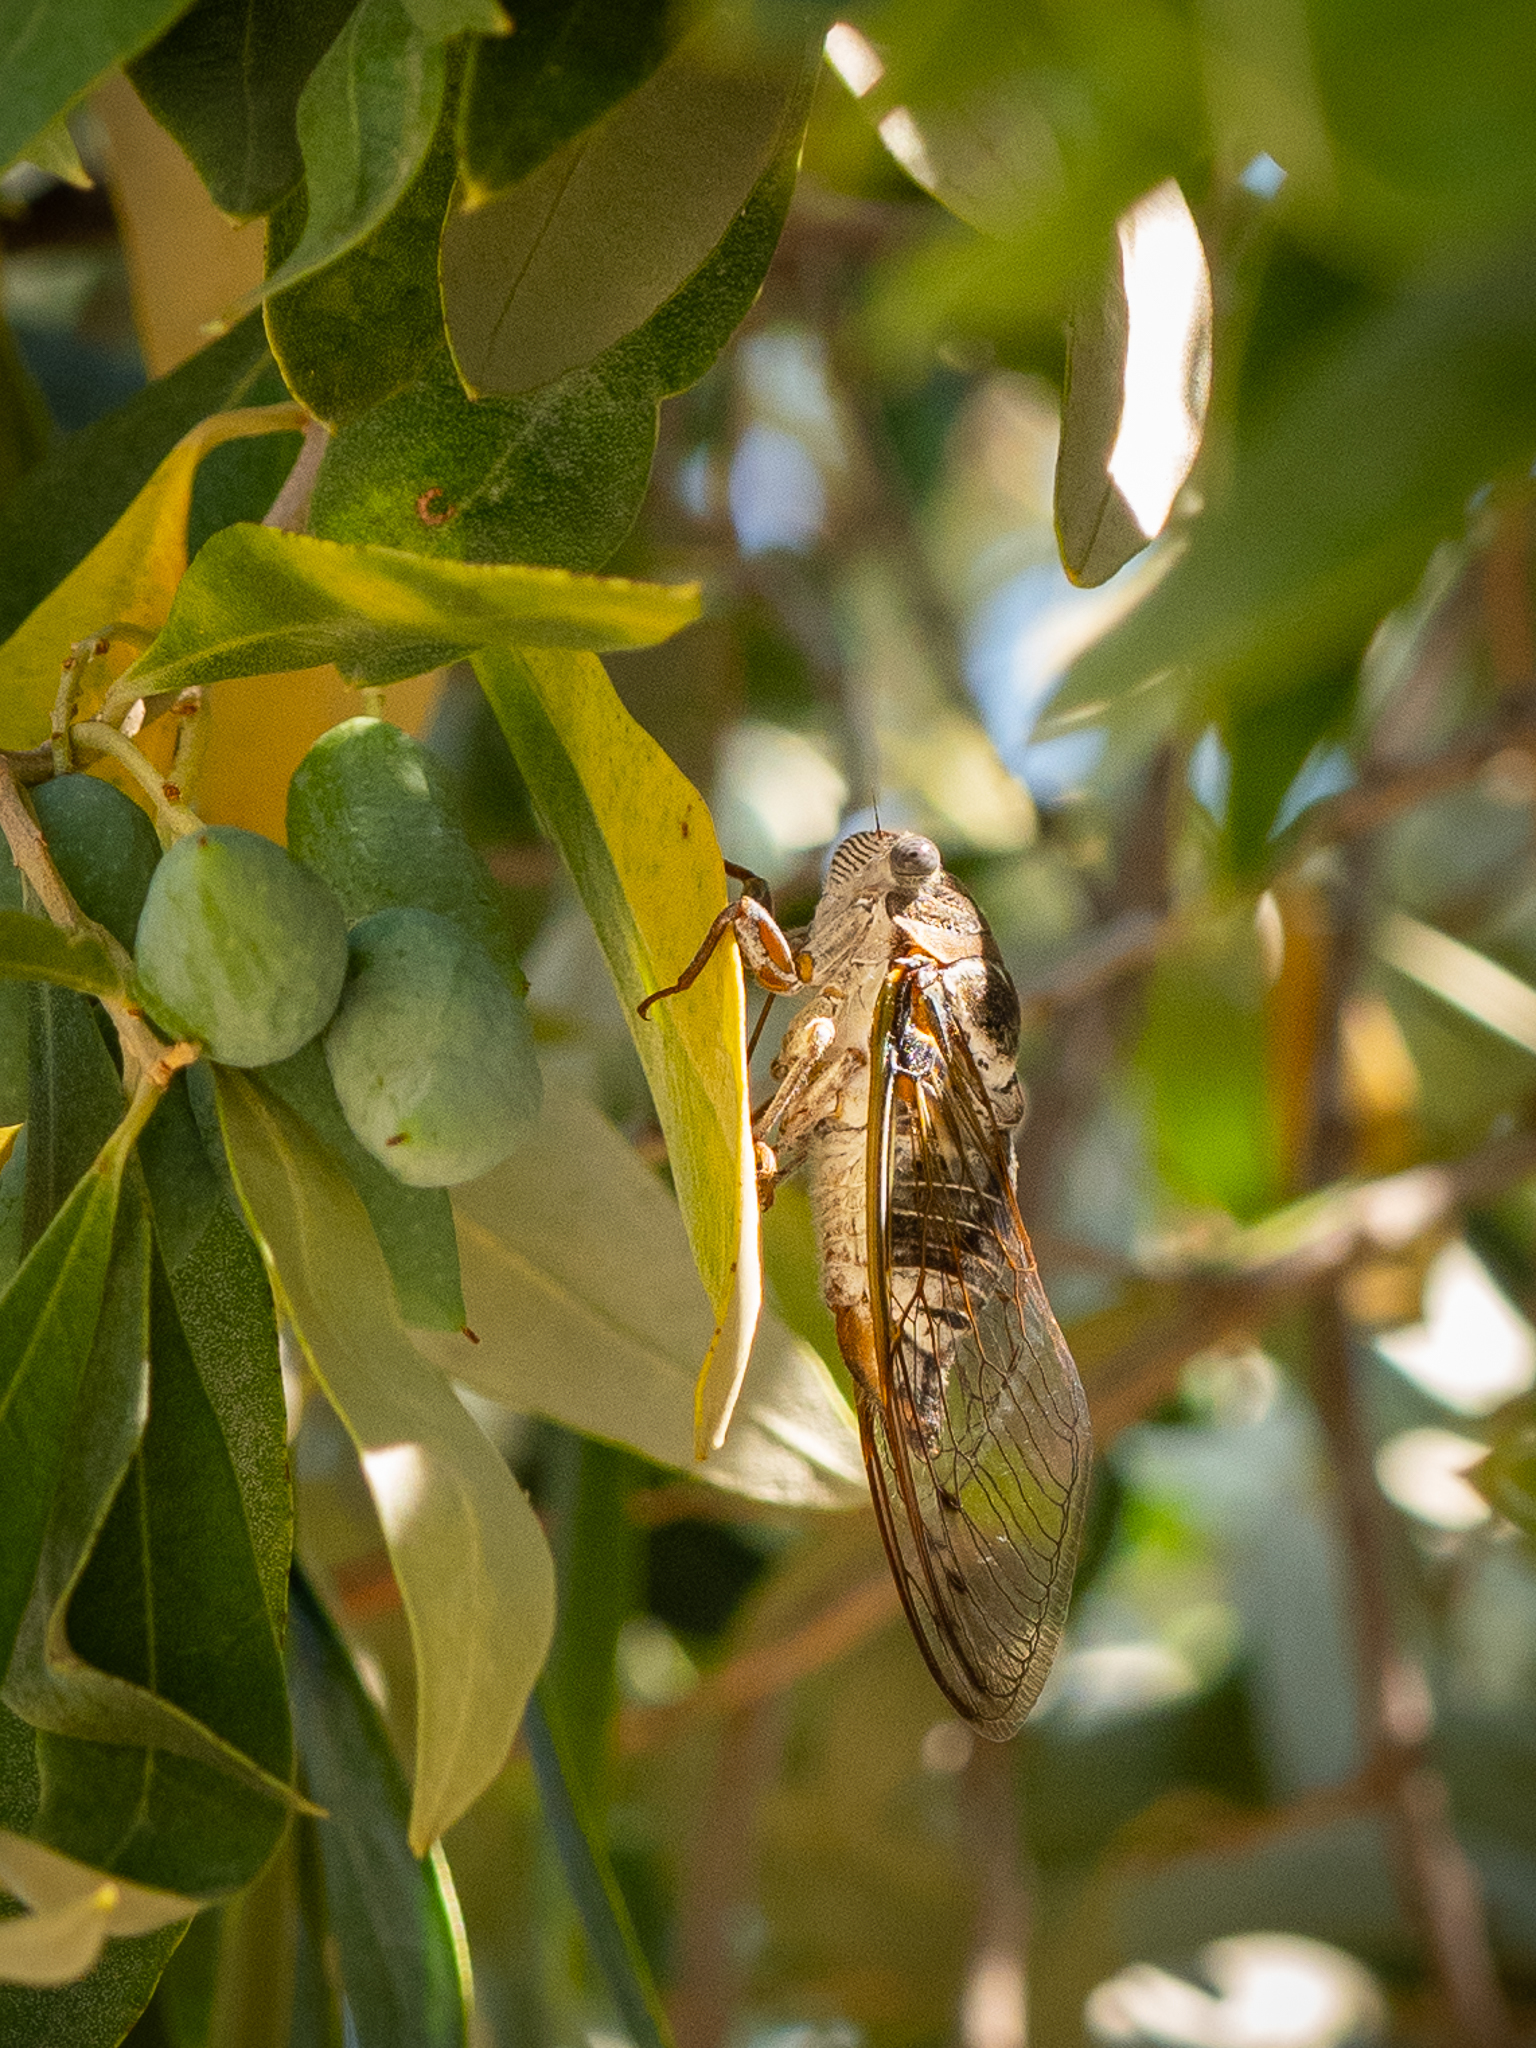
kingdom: Animalia
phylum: Arthropoda
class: Insecta
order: Hemiptera
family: Cicadidae
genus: Lyristes
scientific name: Lyristes plebejus
